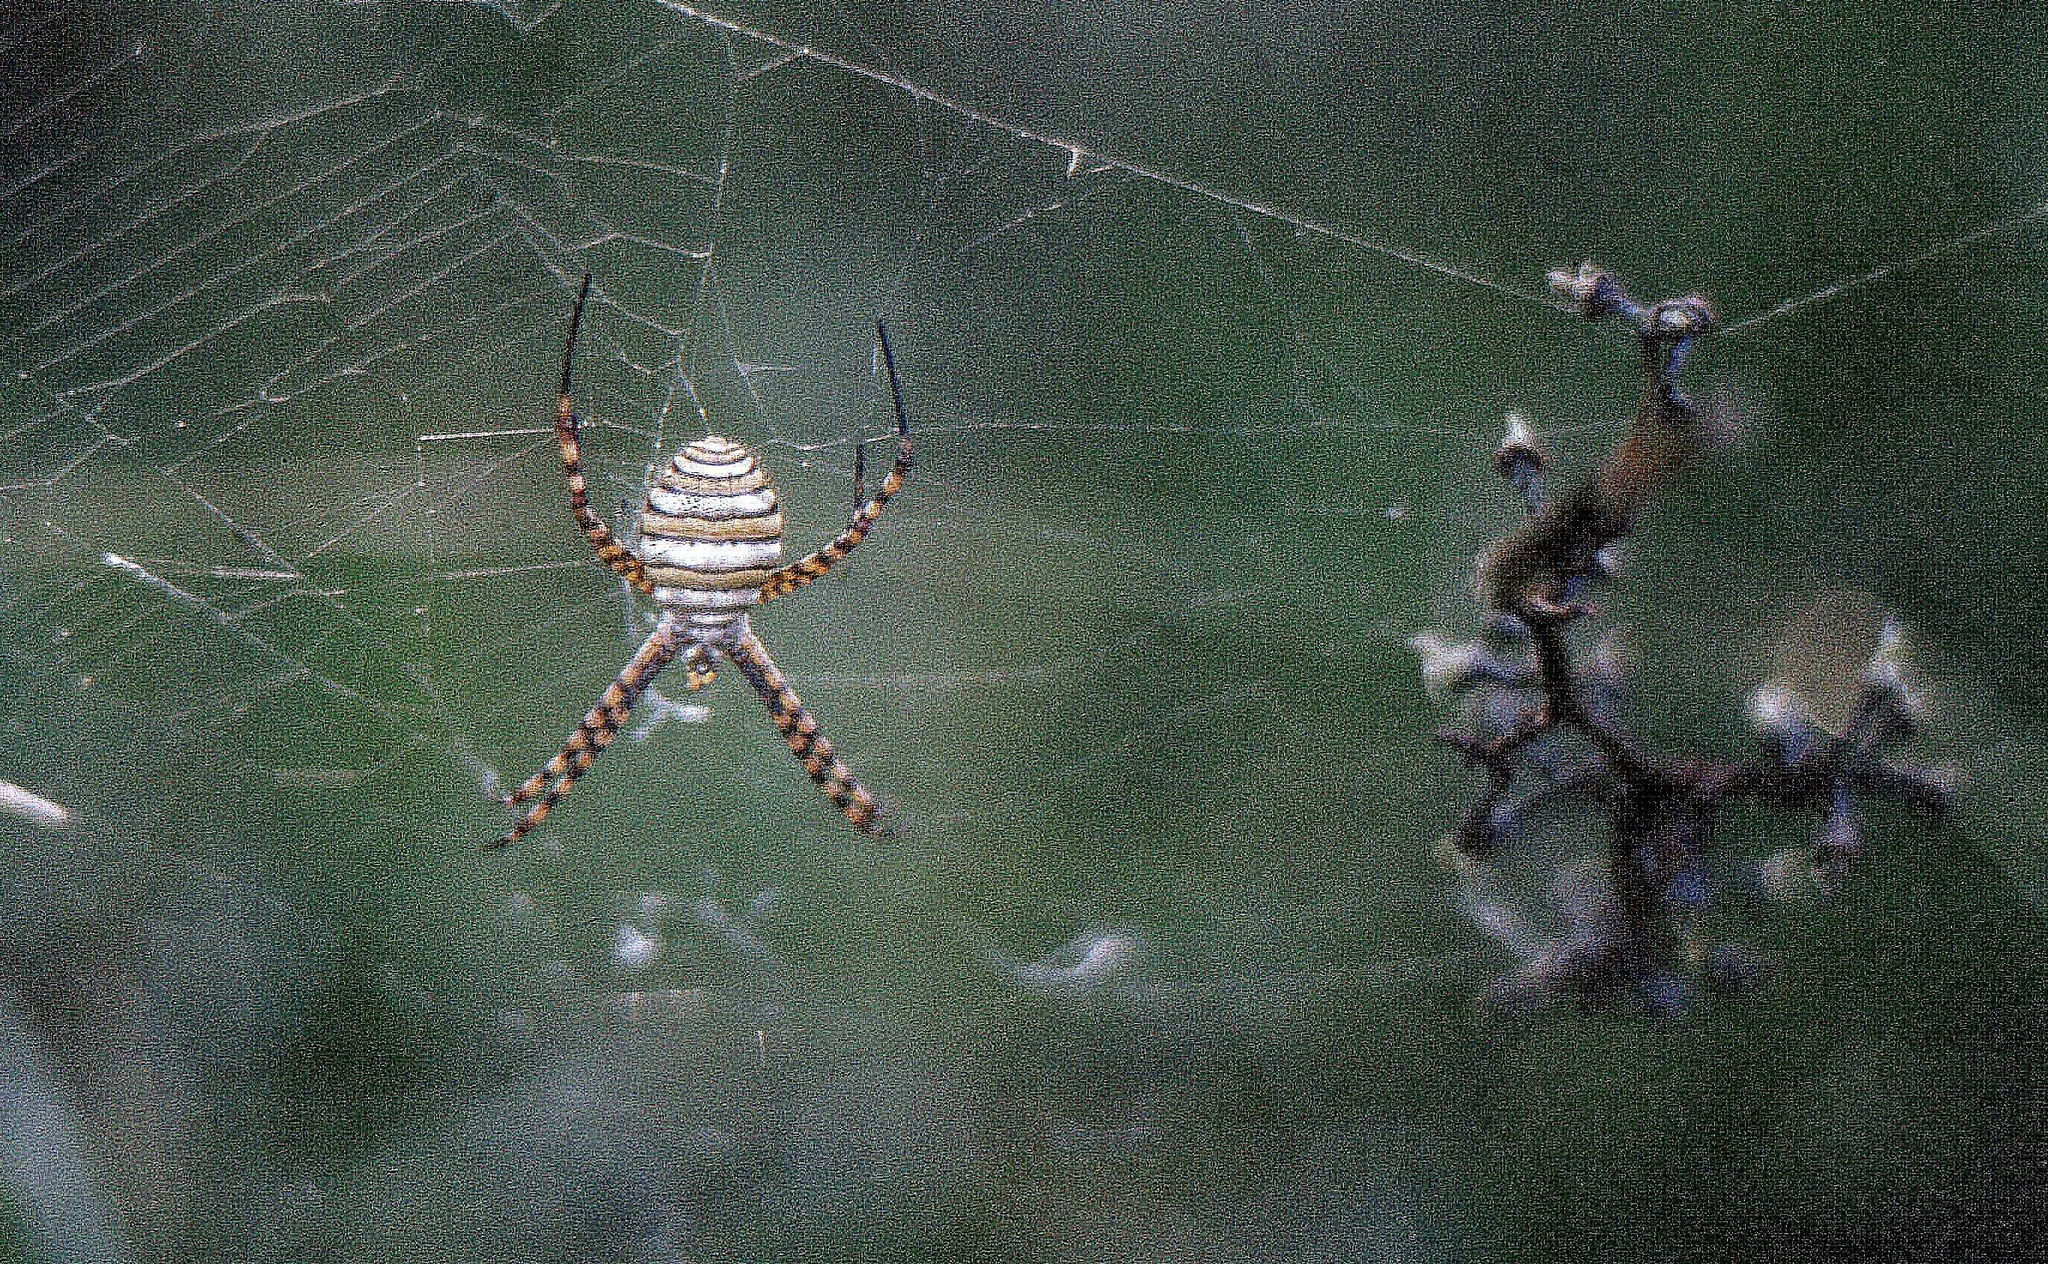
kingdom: Animalia
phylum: Arthropoda
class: Arachnida
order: Araneae
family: Araneidae
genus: Argiope
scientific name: Argiope trifasciata
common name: Banded garden spider
